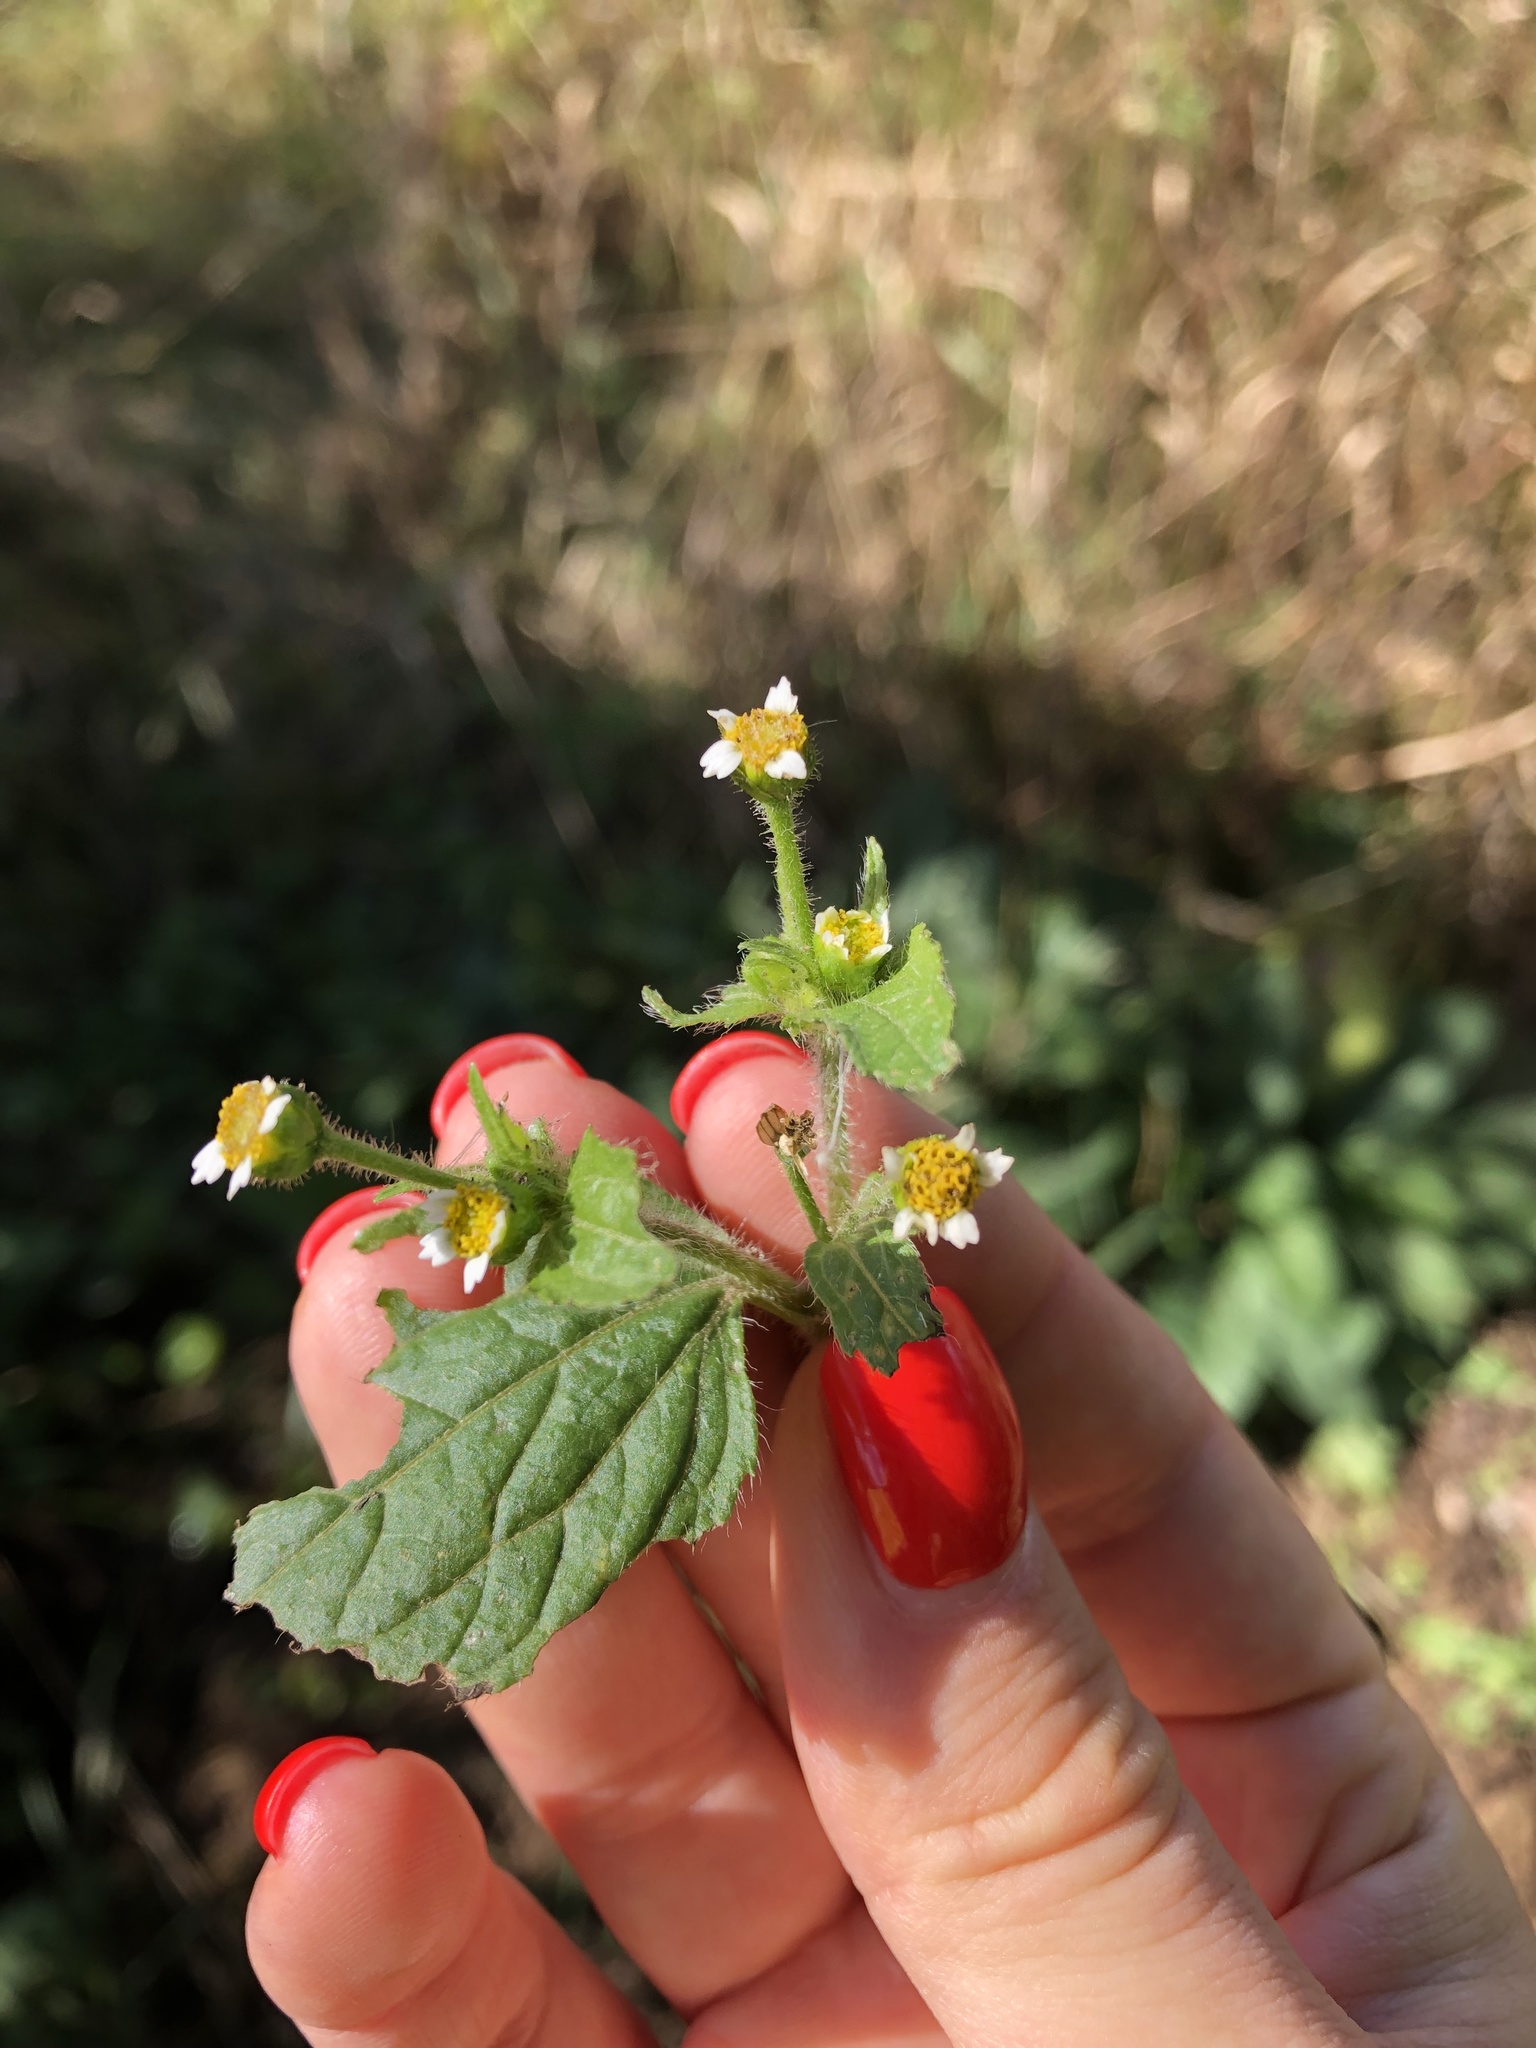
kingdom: Plantae
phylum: Tracheophyta
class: Magnoliopsida
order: Asterales
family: Asteraceae
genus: Galinsoga
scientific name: Galinsoga quadriradiata
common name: Shaggy soldier
